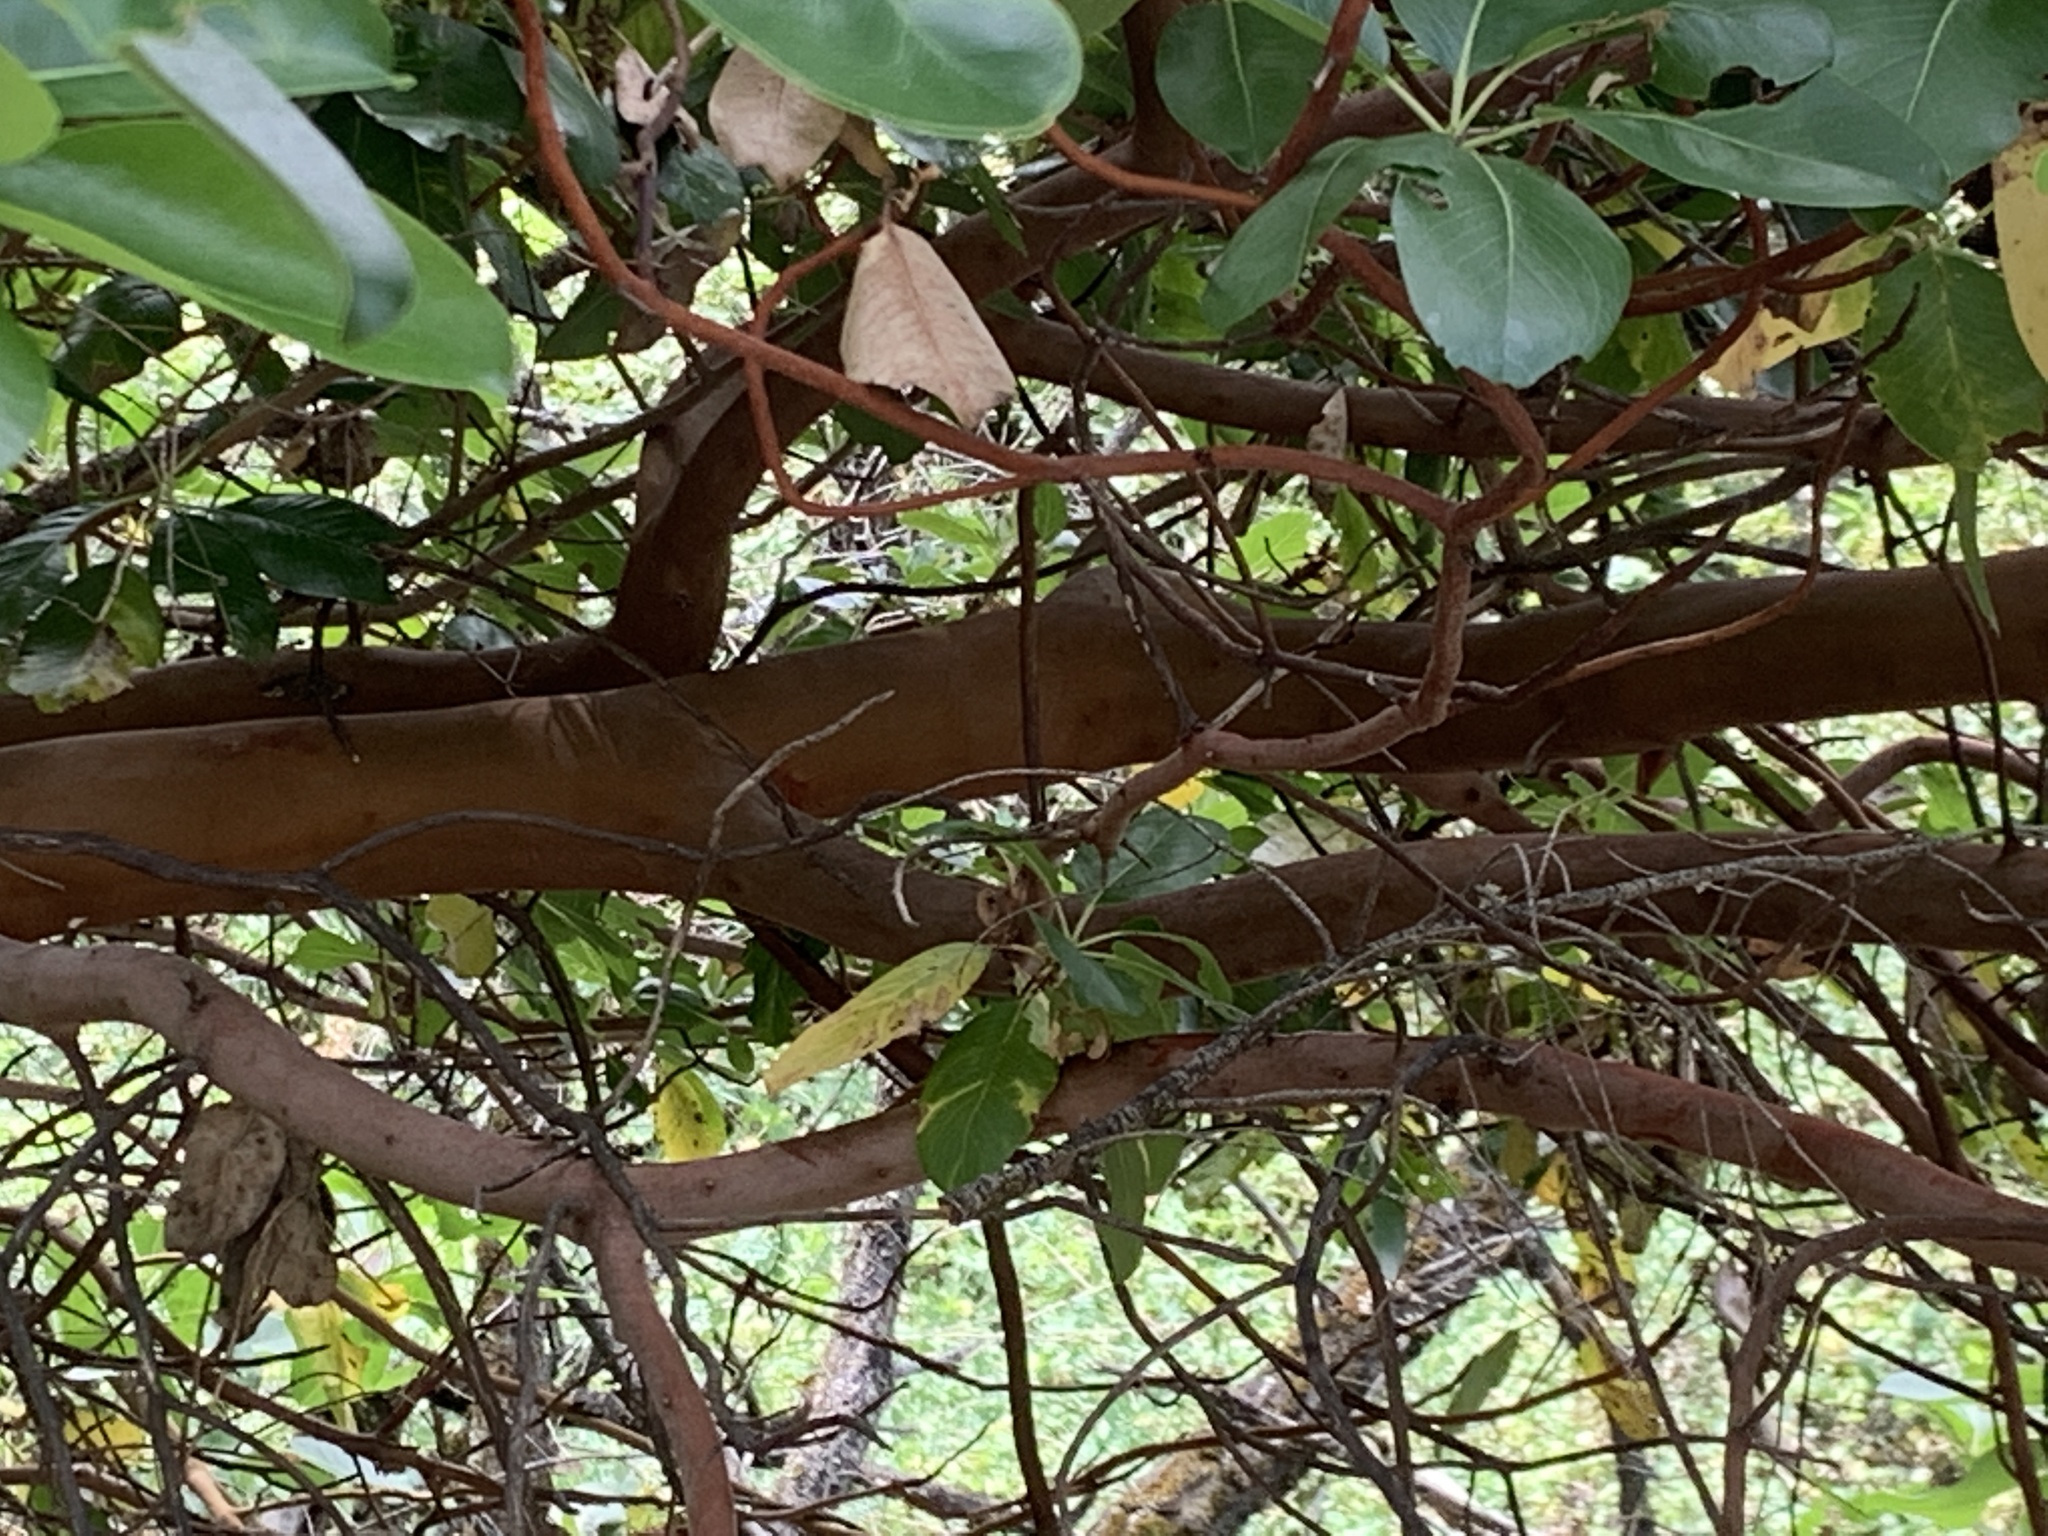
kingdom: Plantae
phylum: Tracheophyta
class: Magnoliopsida
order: Ericales
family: Ericaceae
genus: Arbutus
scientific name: Arbutus menziesii
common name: Pacific madrone
